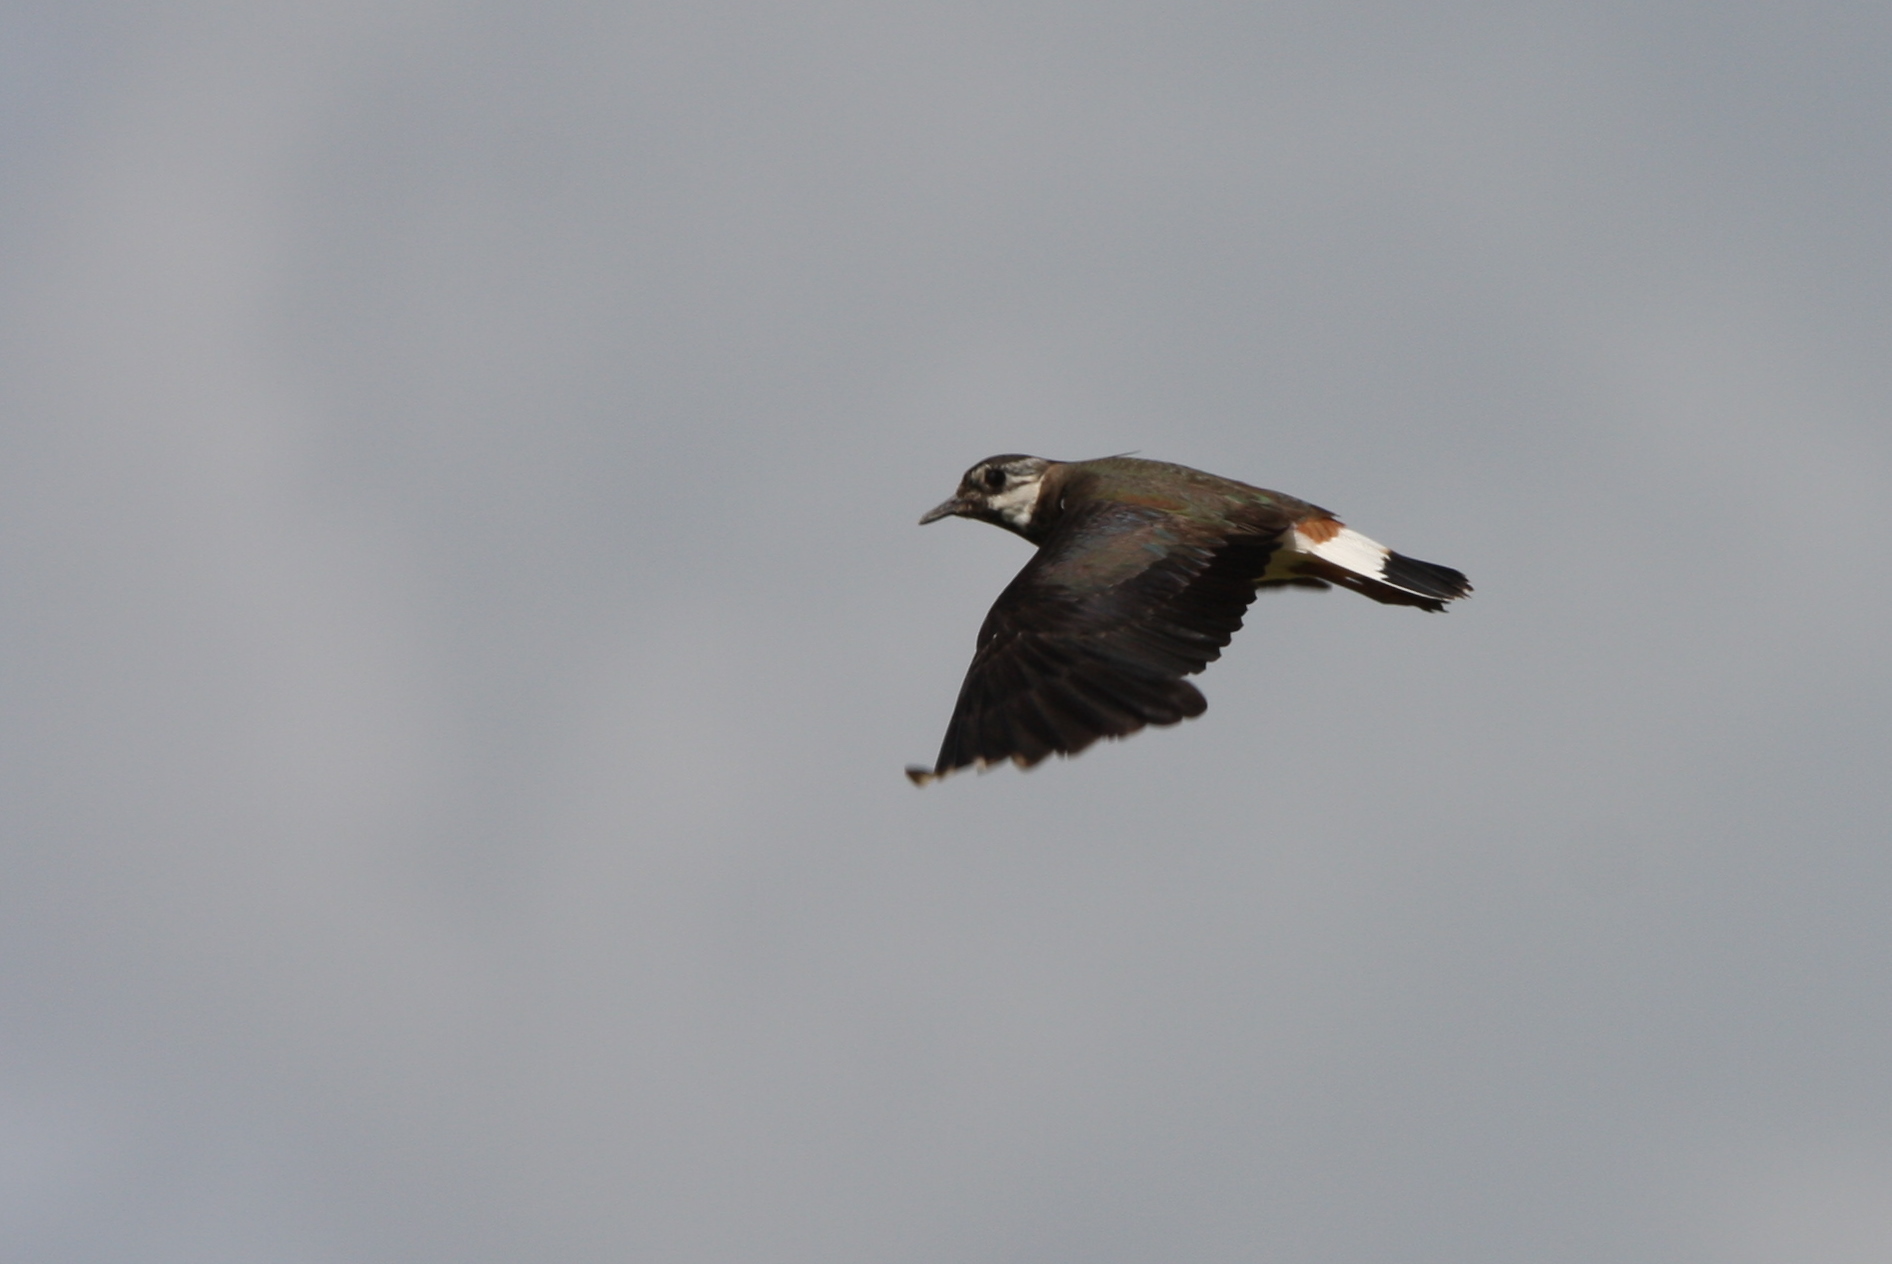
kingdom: Animalia
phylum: Chordata
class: Aves
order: Charadriiformes
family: Charadriidae
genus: Vanellus
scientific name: Vanellus vanellus
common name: Northern lapwing
